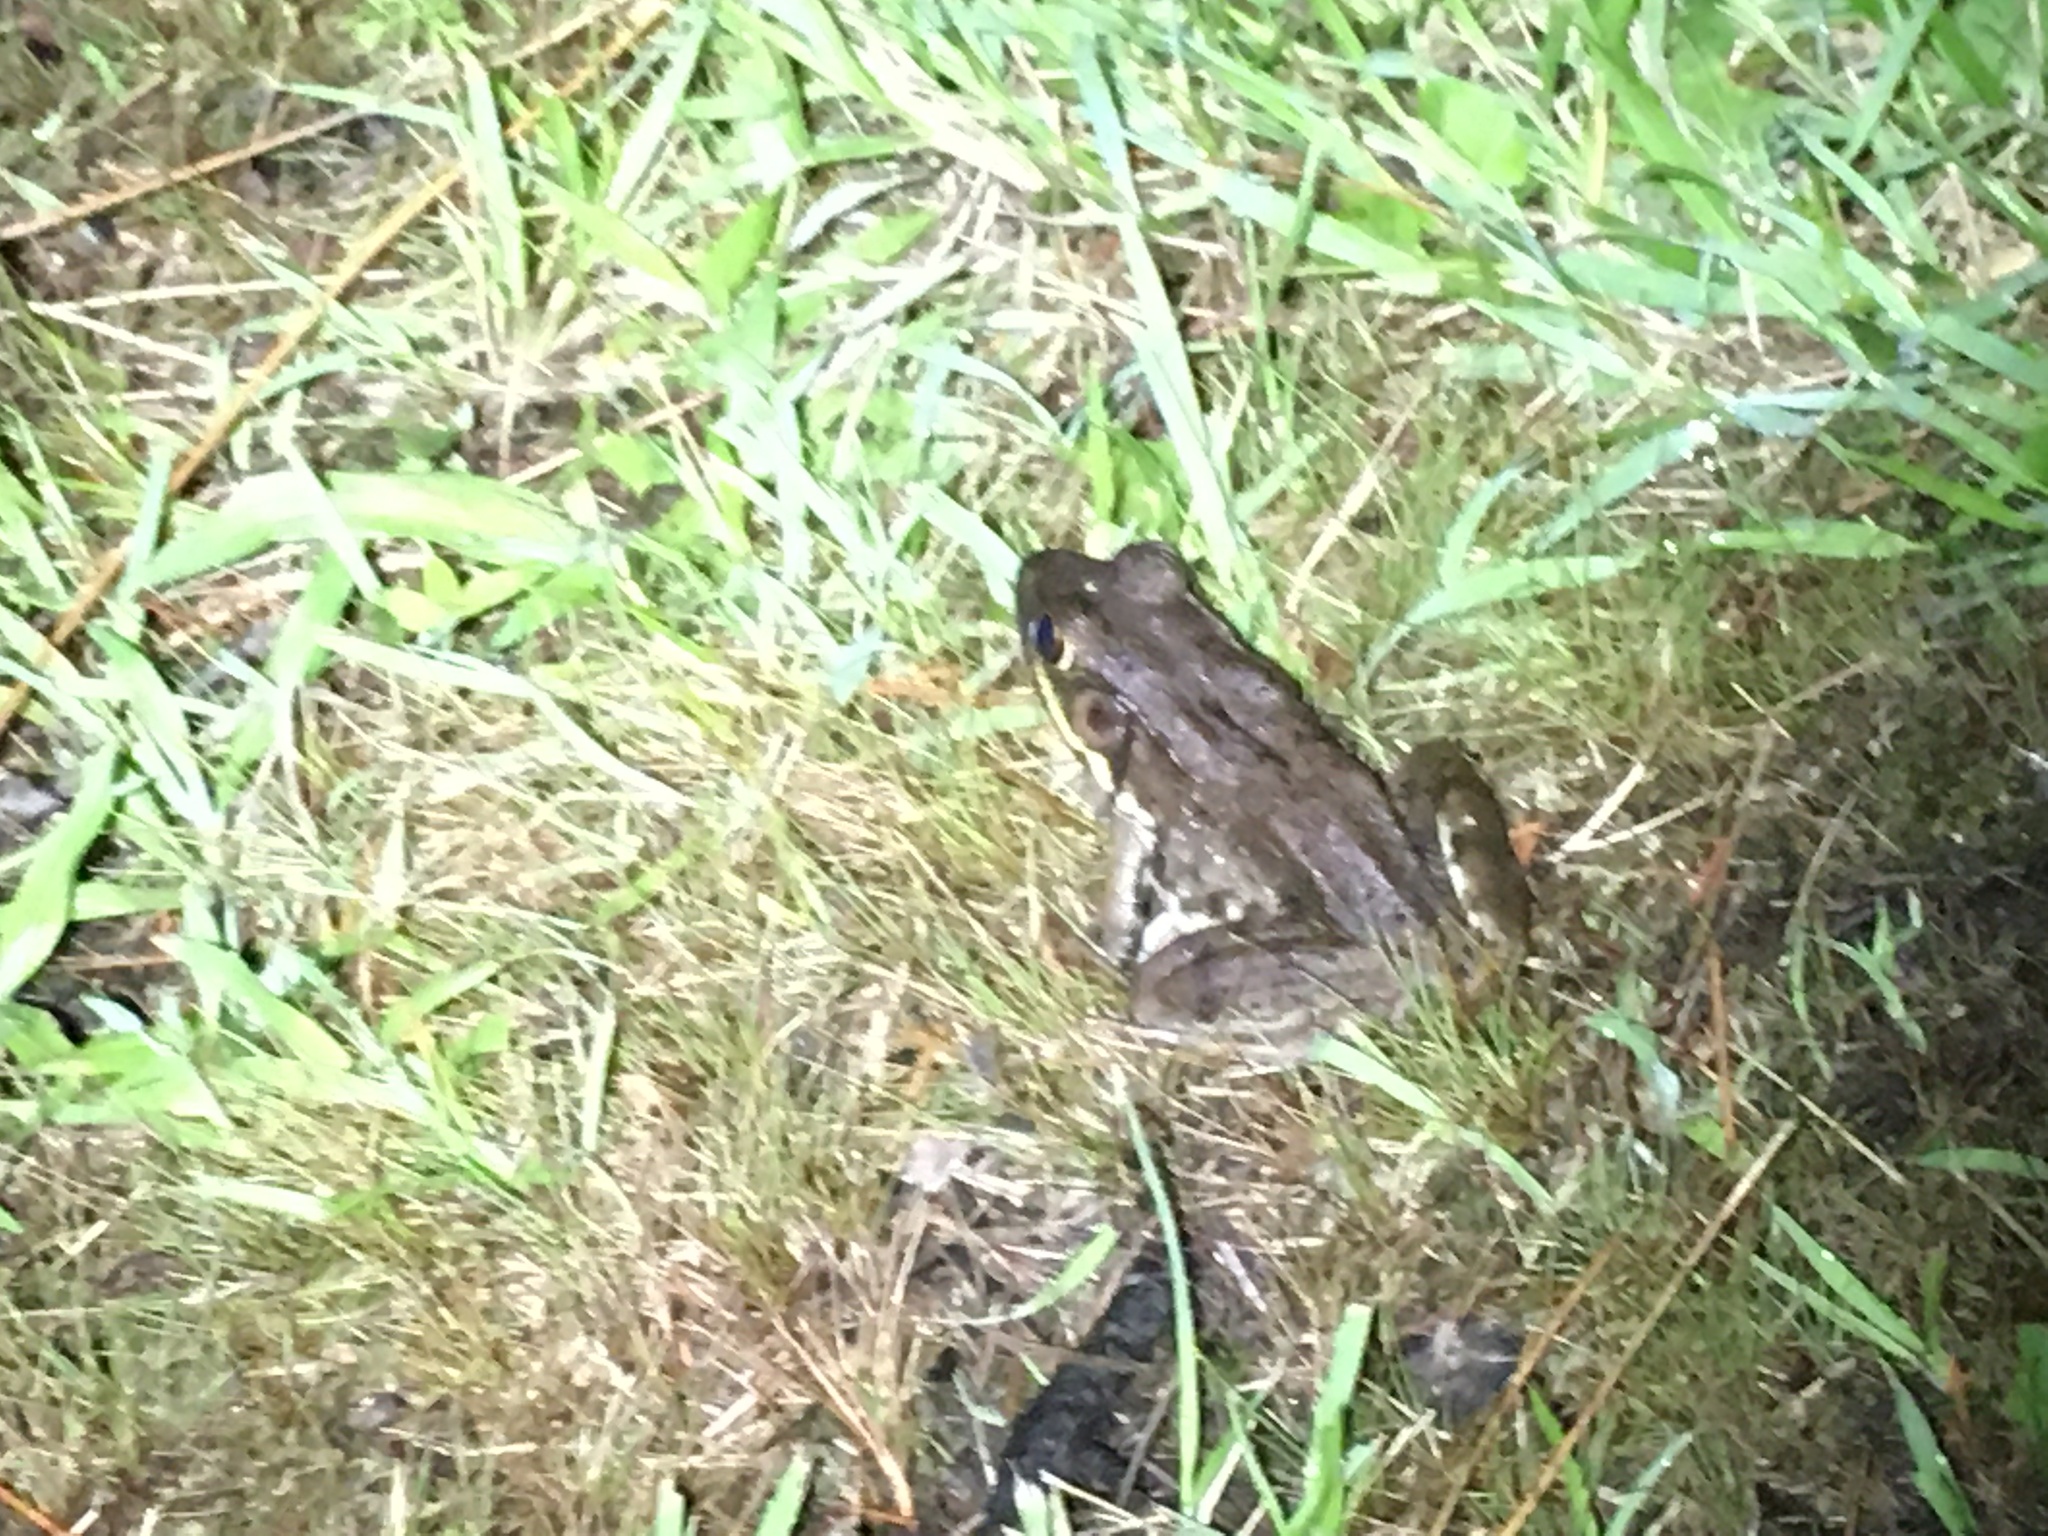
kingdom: Animalia
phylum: Chordata
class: Amphibia
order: Anura
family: Ranidae
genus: Lithobates
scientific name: Lithobates clamitans
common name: Green frog
